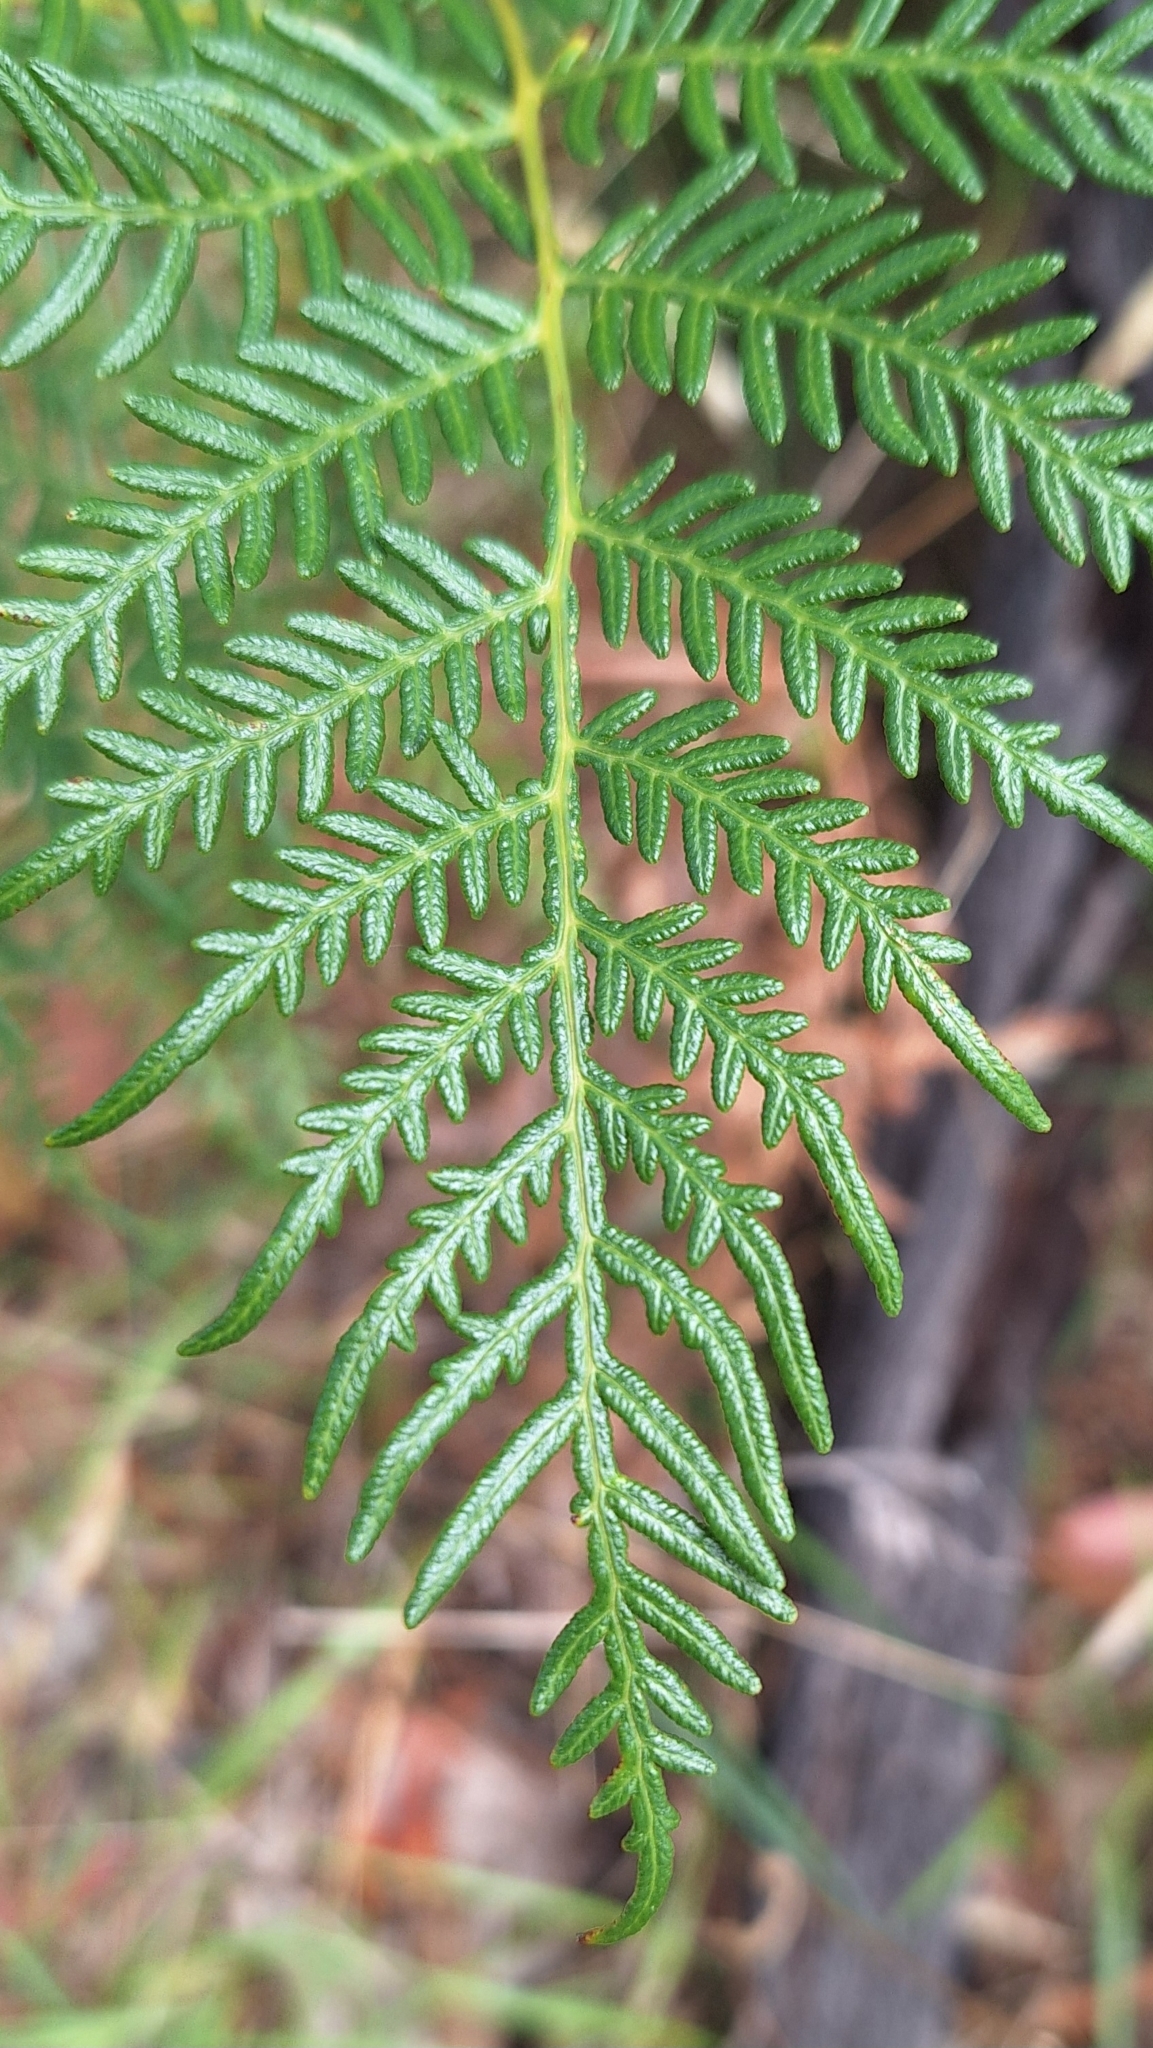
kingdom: Plantae
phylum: Tracheophyta
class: Polypodiopsida
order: Polypodiales
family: Dennstaedtiaceae
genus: Pteridium
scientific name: Pteridium esculentum
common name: Bracken fern
